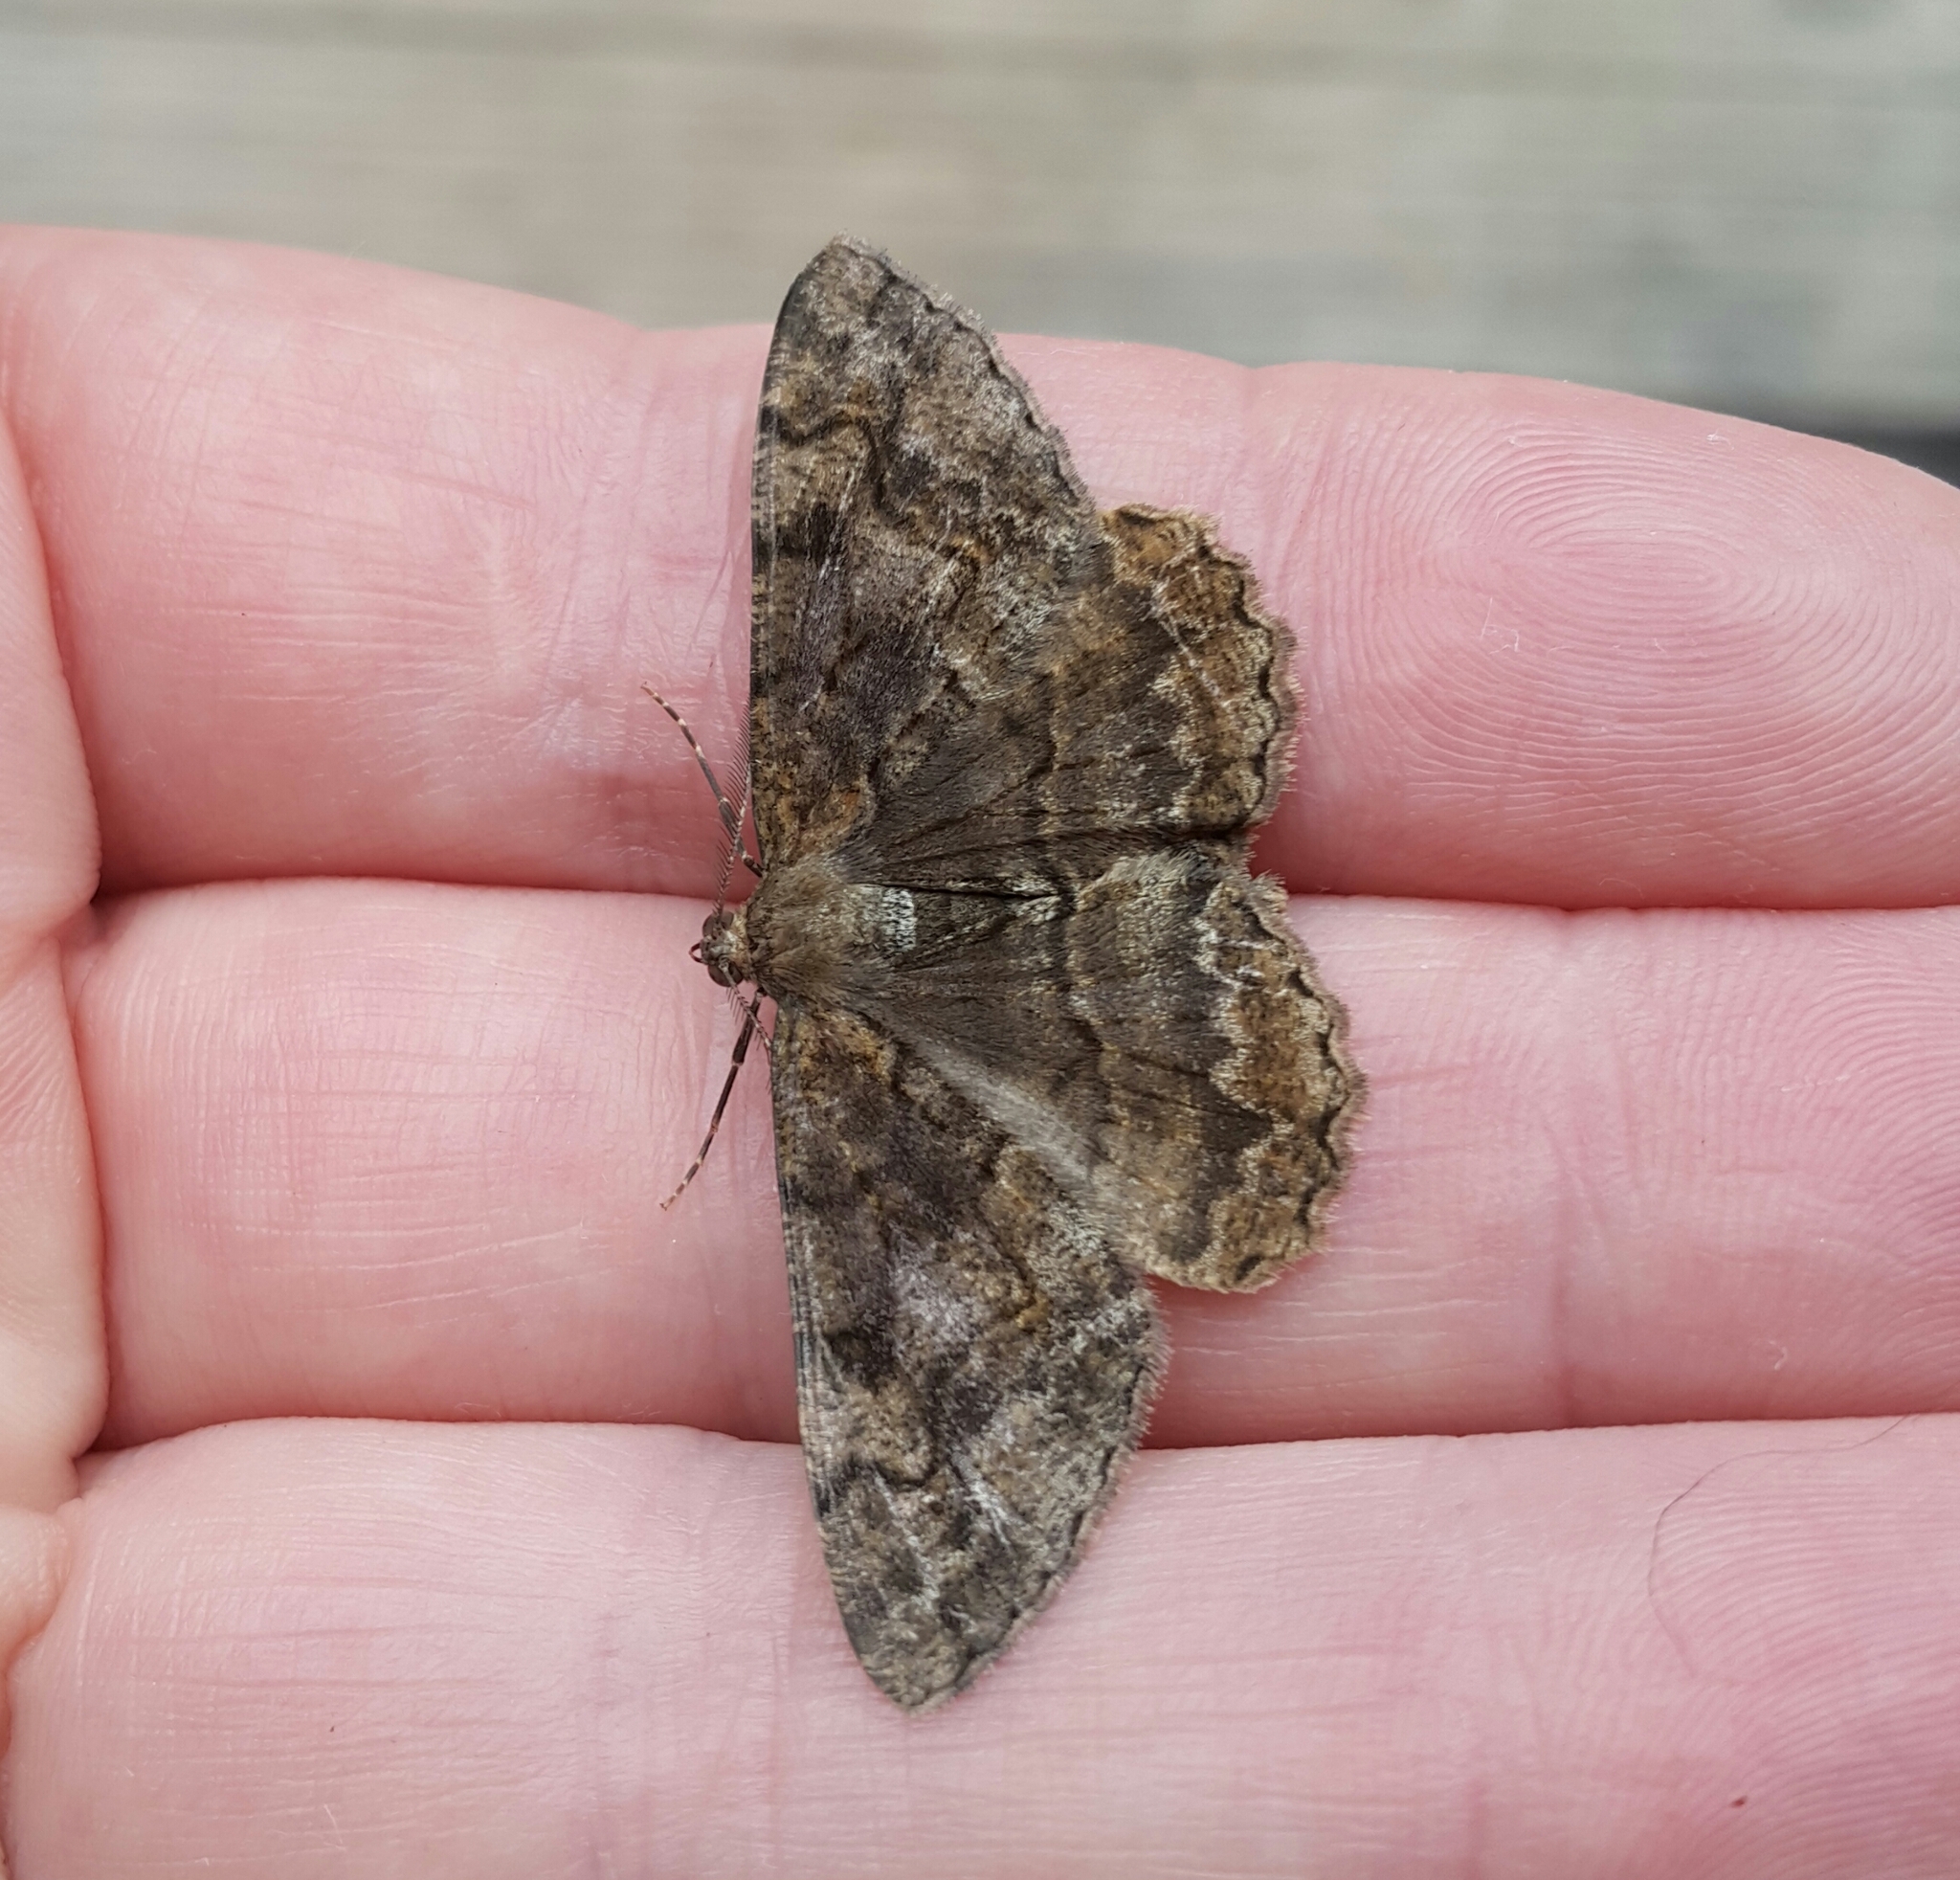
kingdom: Animalia
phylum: Arthropoda
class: Insecta
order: Lepidoptera
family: Geometridae
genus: Alcis
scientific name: Alcis repandata
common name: Mottled beauty
